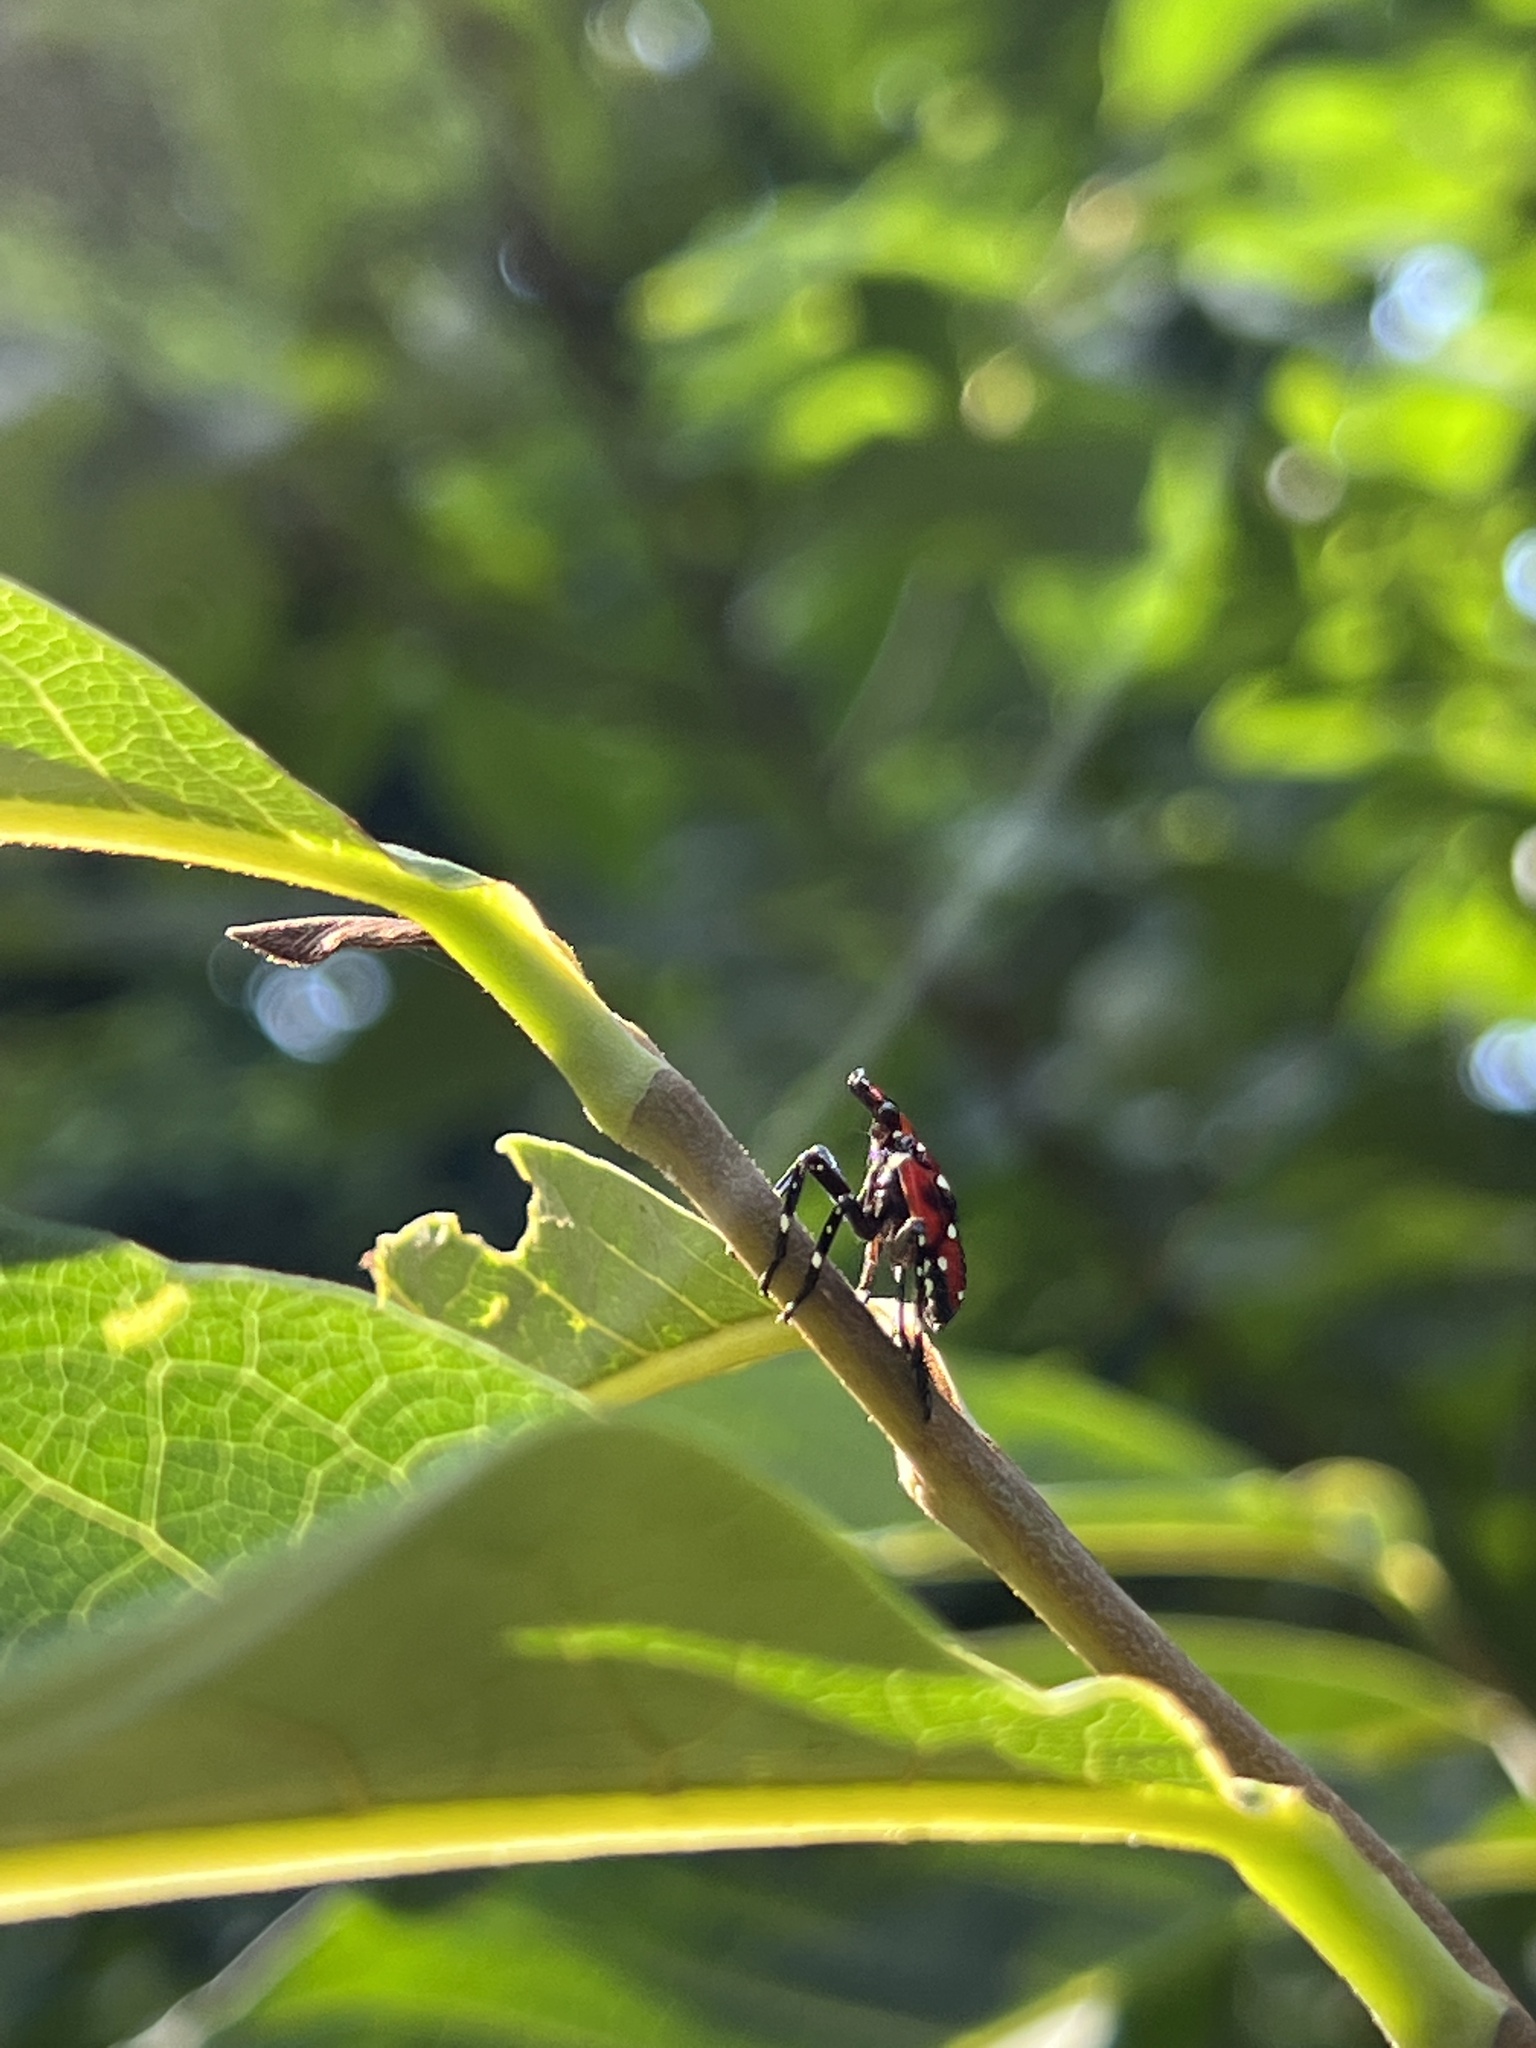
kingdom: Animalia
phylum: Arthropoda
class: Insecta
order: Hemiptera
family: Fulgoridae
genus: Lycorma
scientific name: Lycorma delicatula
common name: Spotted lanternfly
